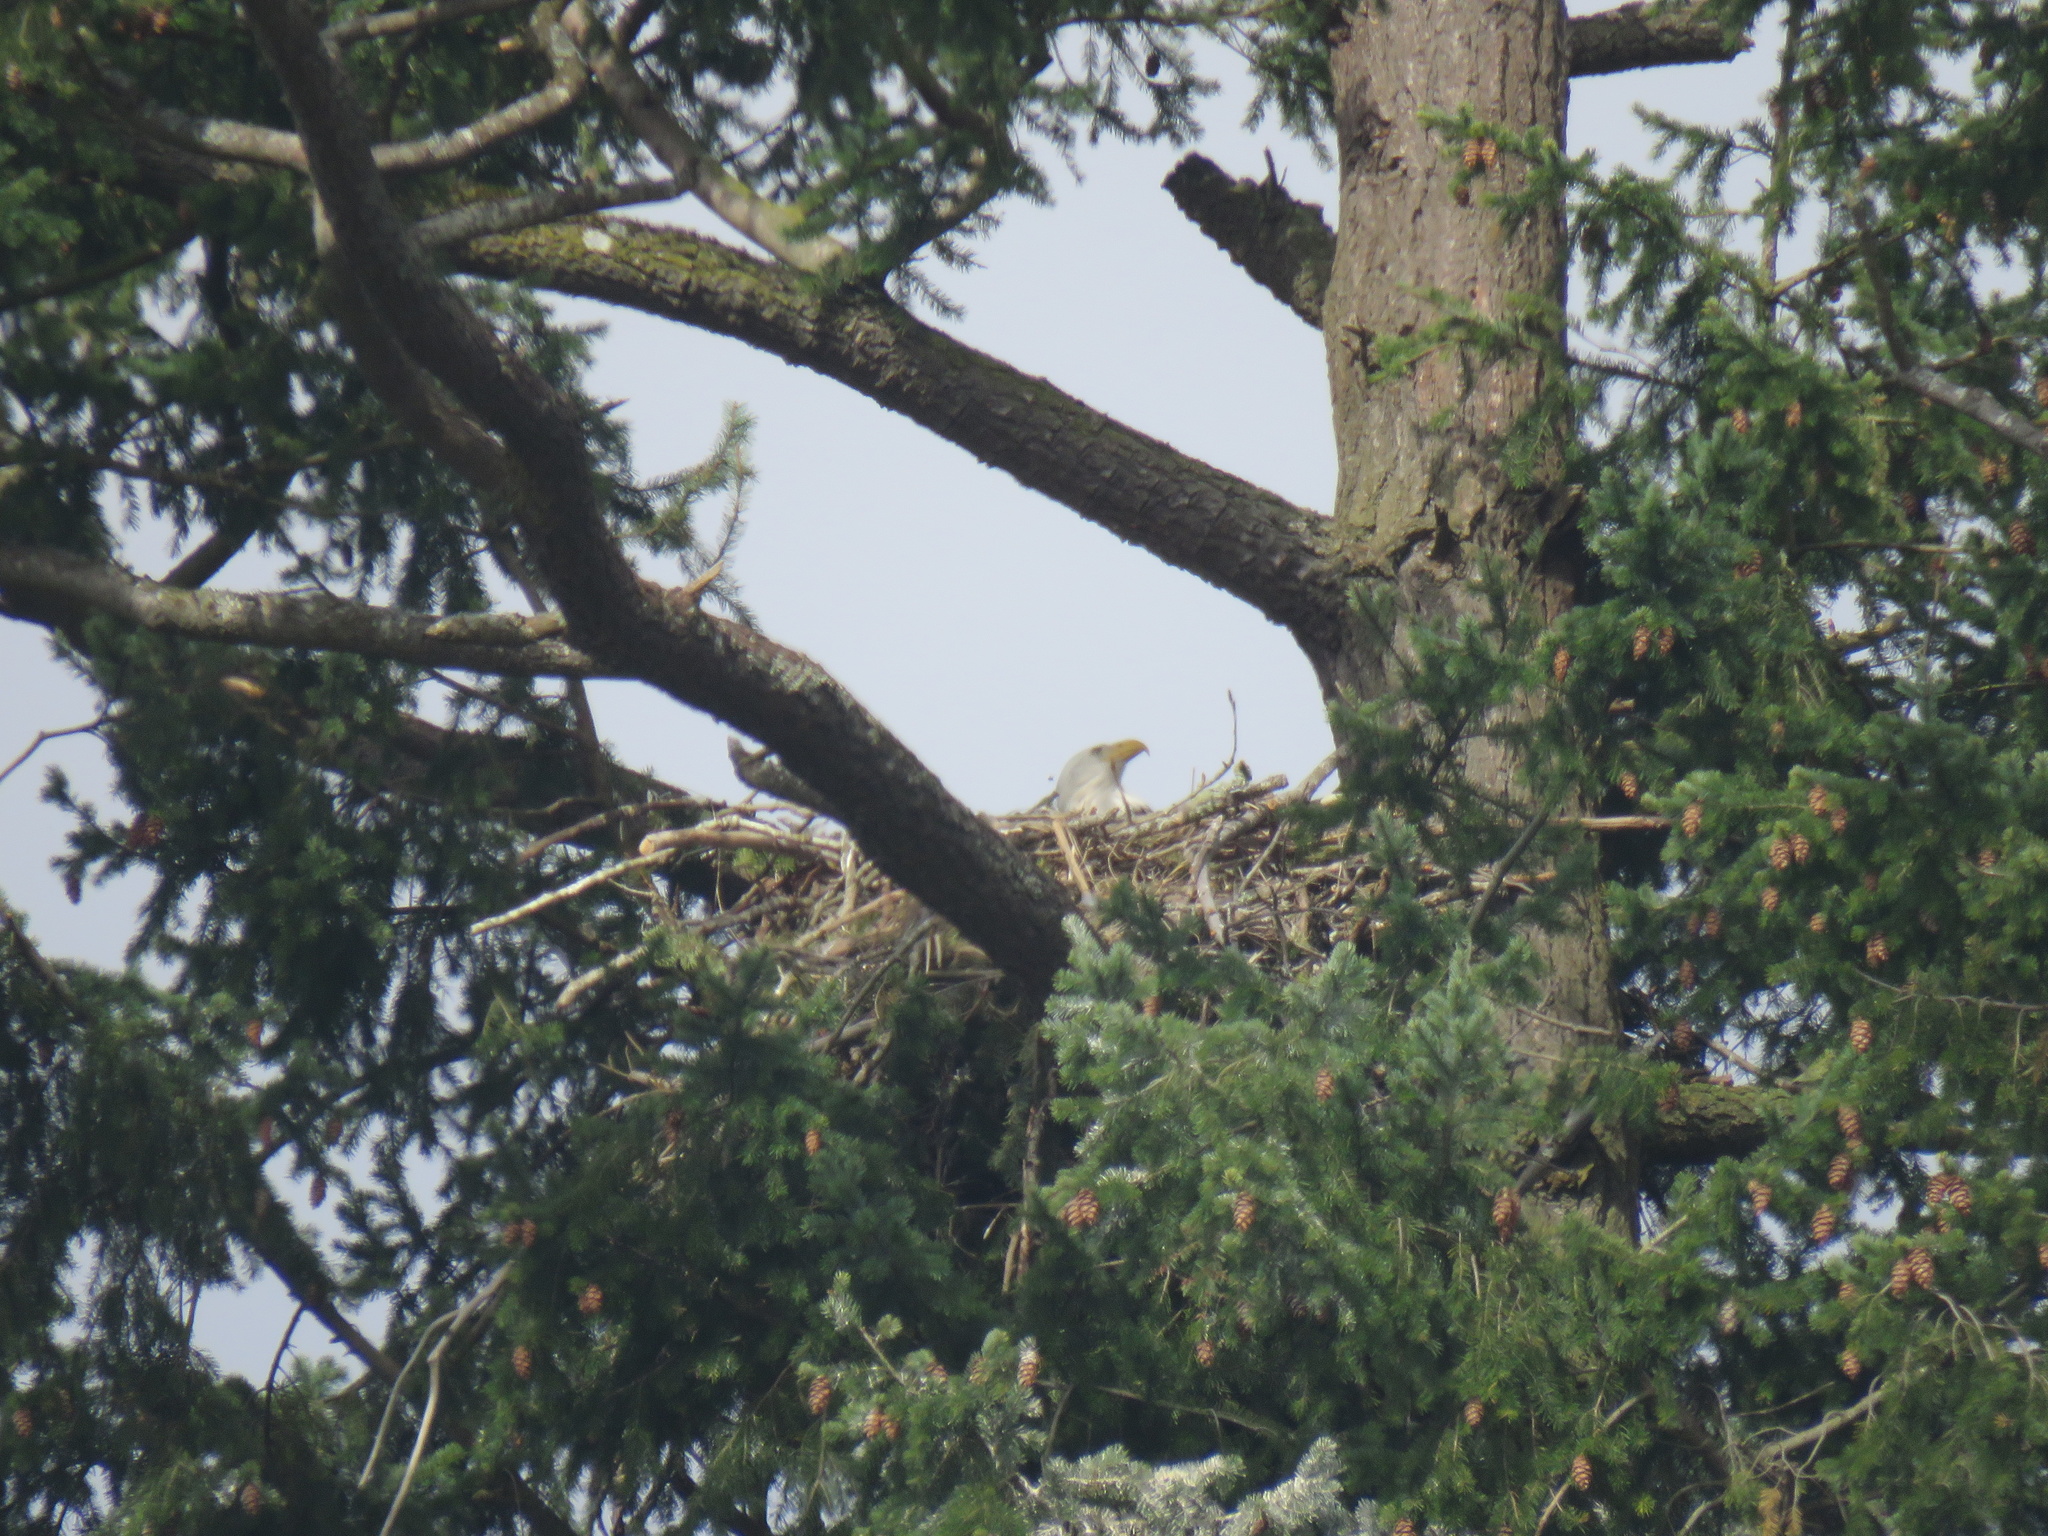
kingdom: Animalia
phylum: Chordata
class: Aves
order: Accipitriformes
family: Accipitridae
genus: Haliaeetus
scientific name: Haliaeetus leucocephalus
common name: Bald eagle
